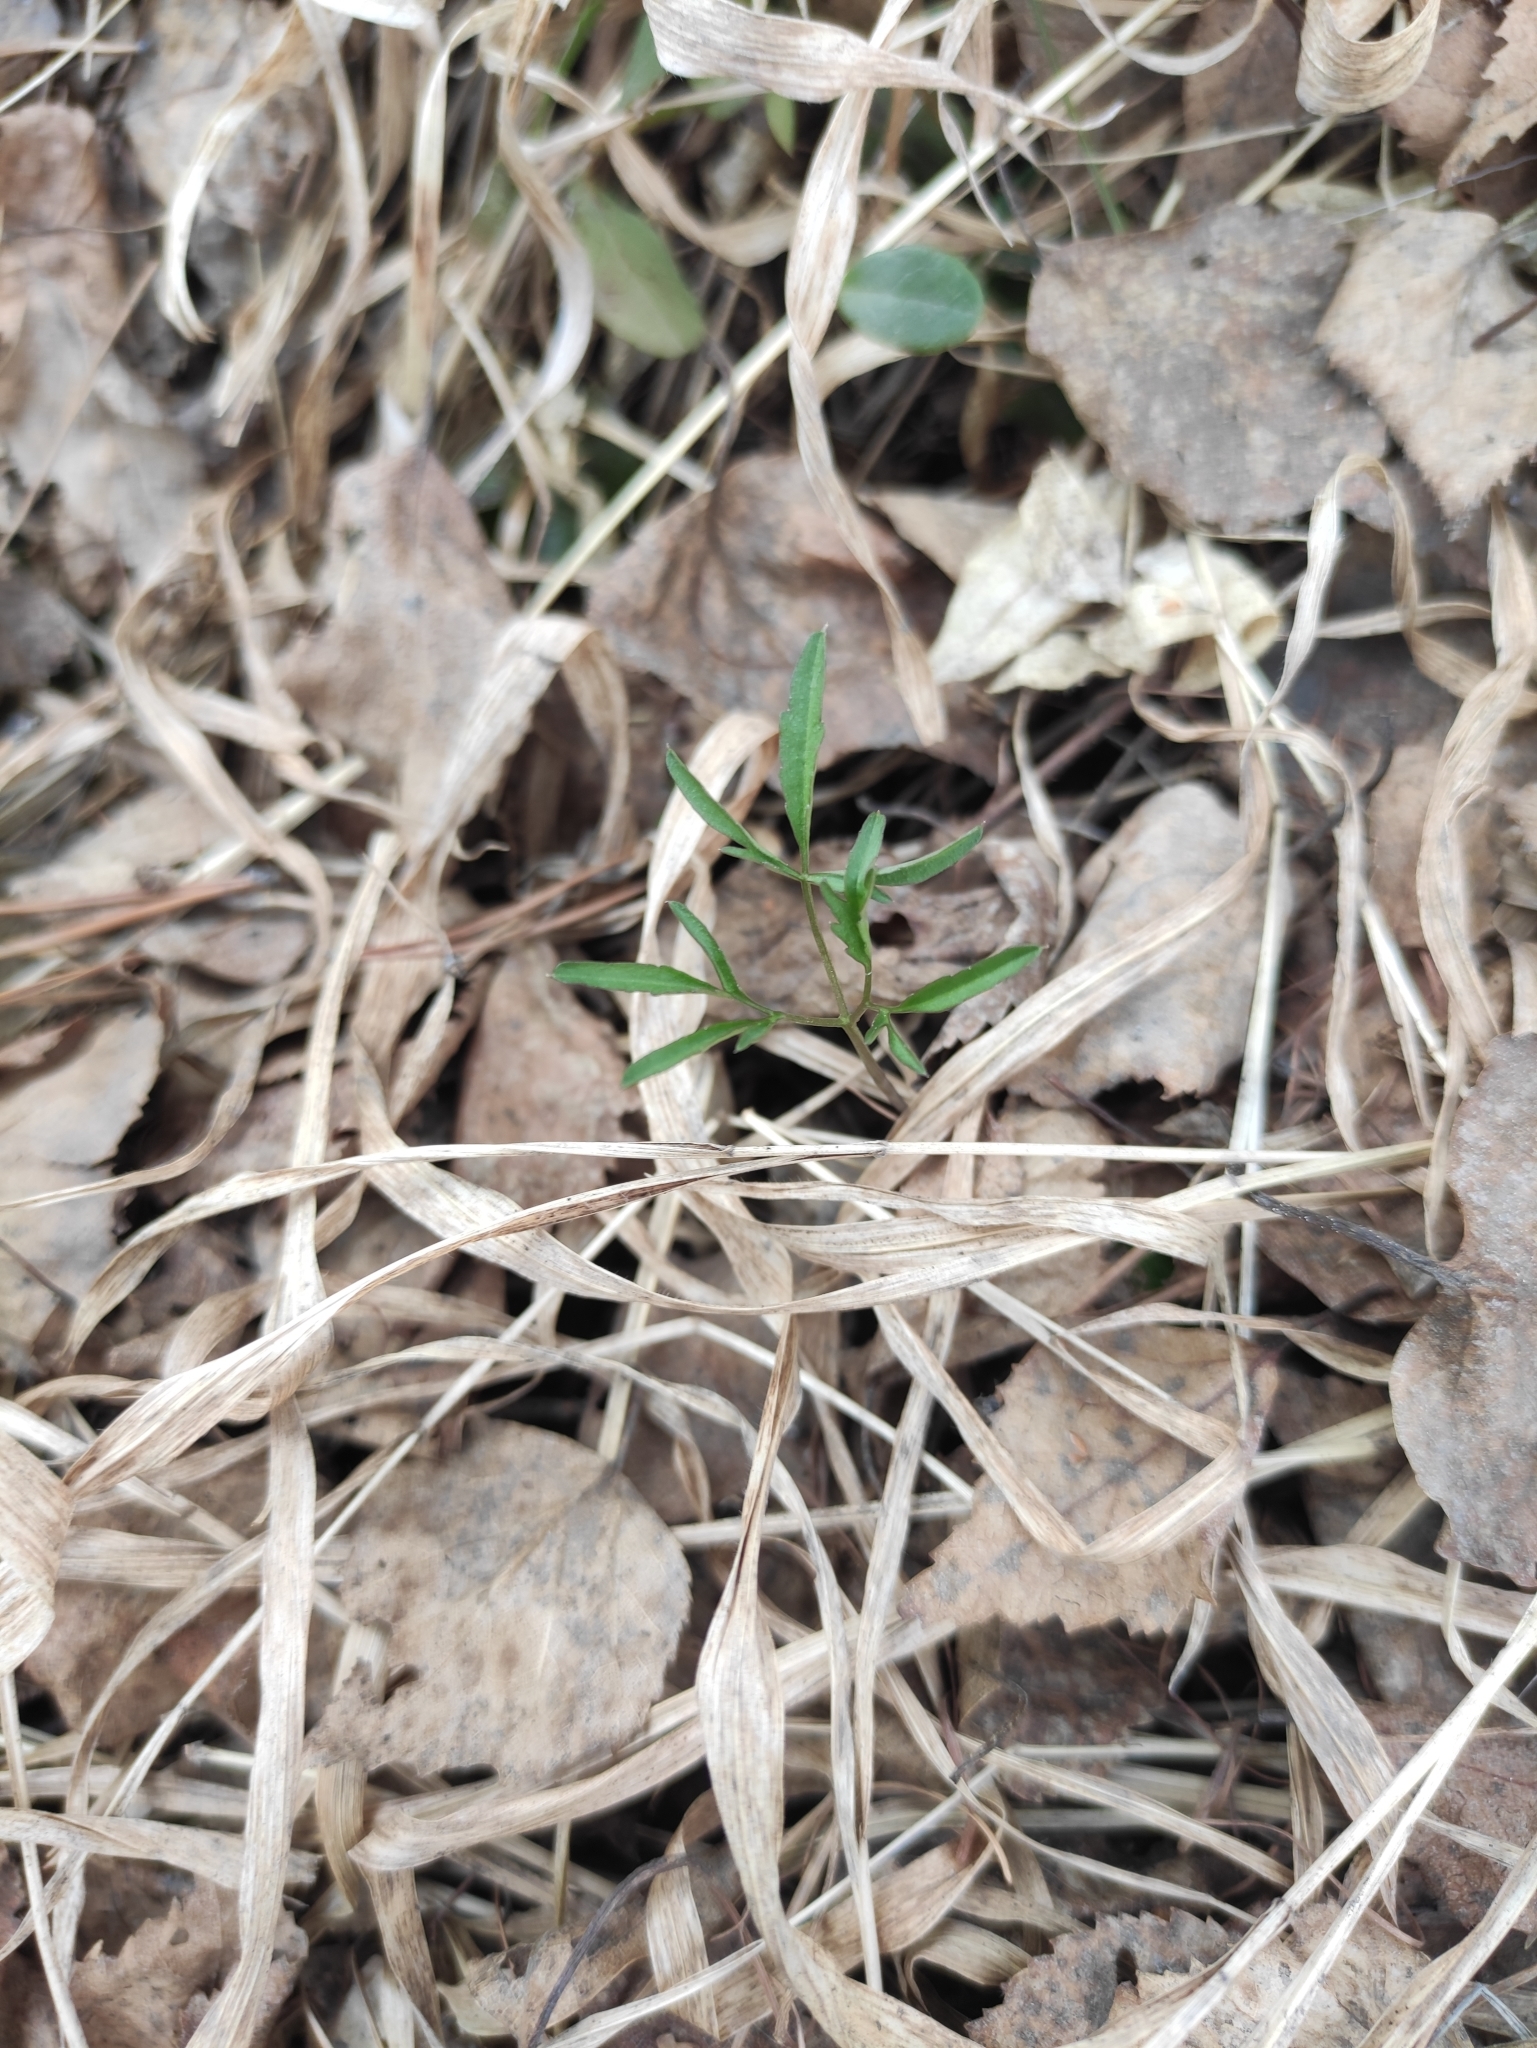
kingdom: Plantae
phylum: Tracheophyta
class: Magnoliopsida
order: Brassicales
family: Brassicaceae
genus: Cardamine
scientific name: Cardamine trifida
